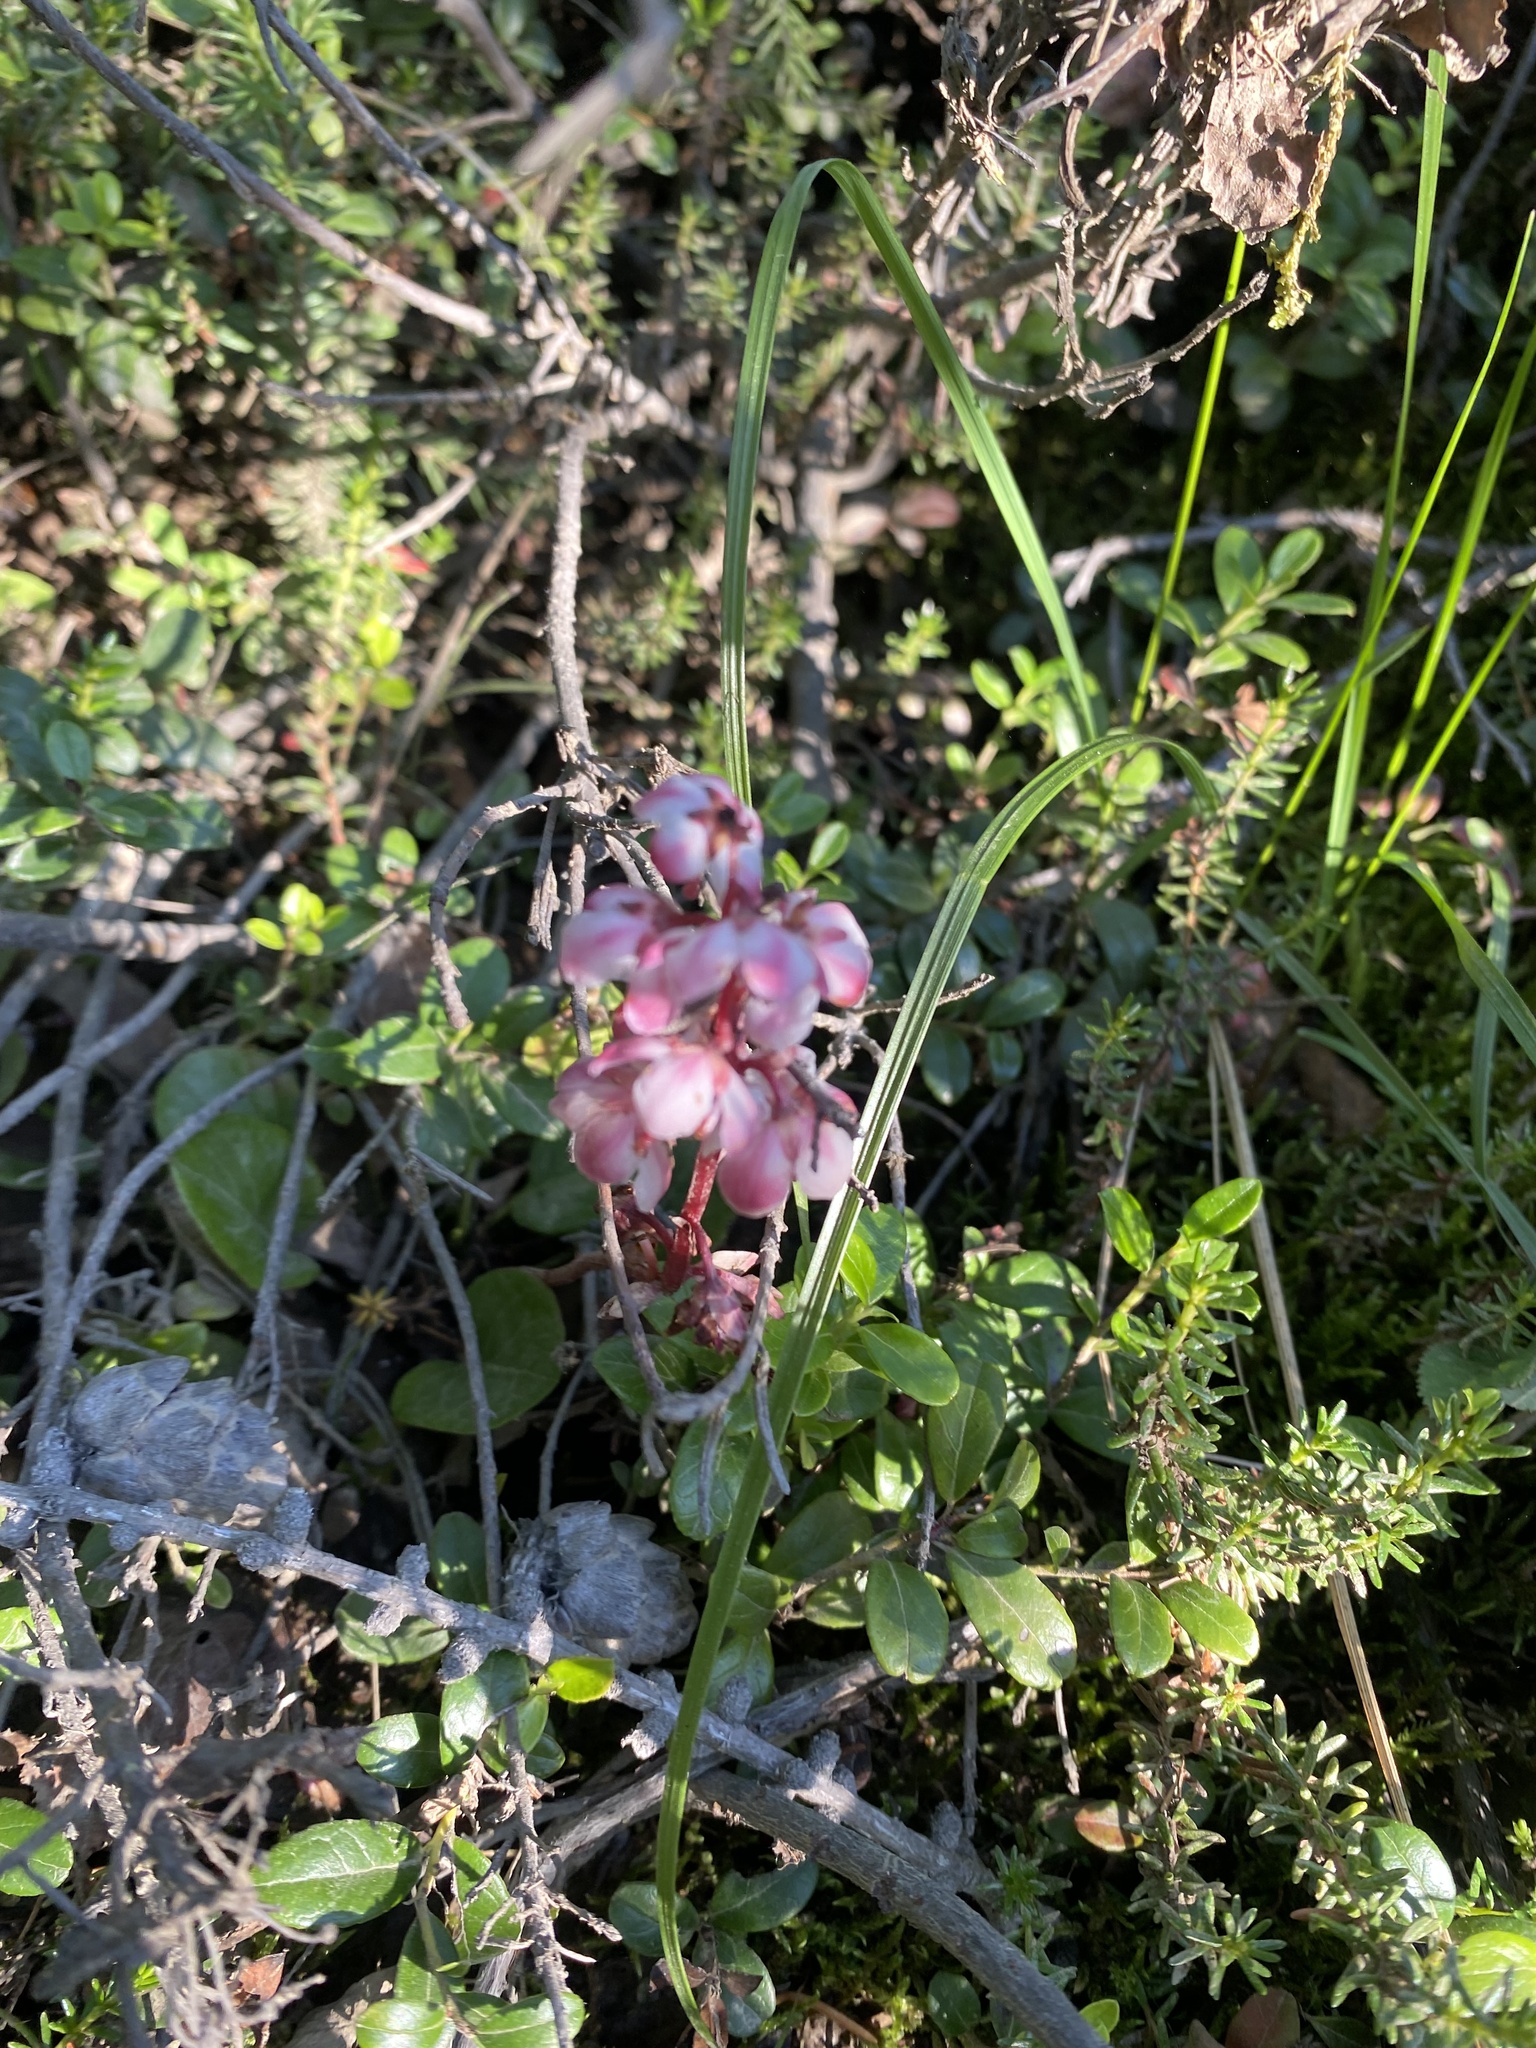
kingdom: Plantae
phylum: Tracheophyta
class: Magnoliopsida
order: Ericales
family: Ericaceae
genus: Pyrola
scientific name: Pyrola asarifolia
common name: Bog wintergreen
